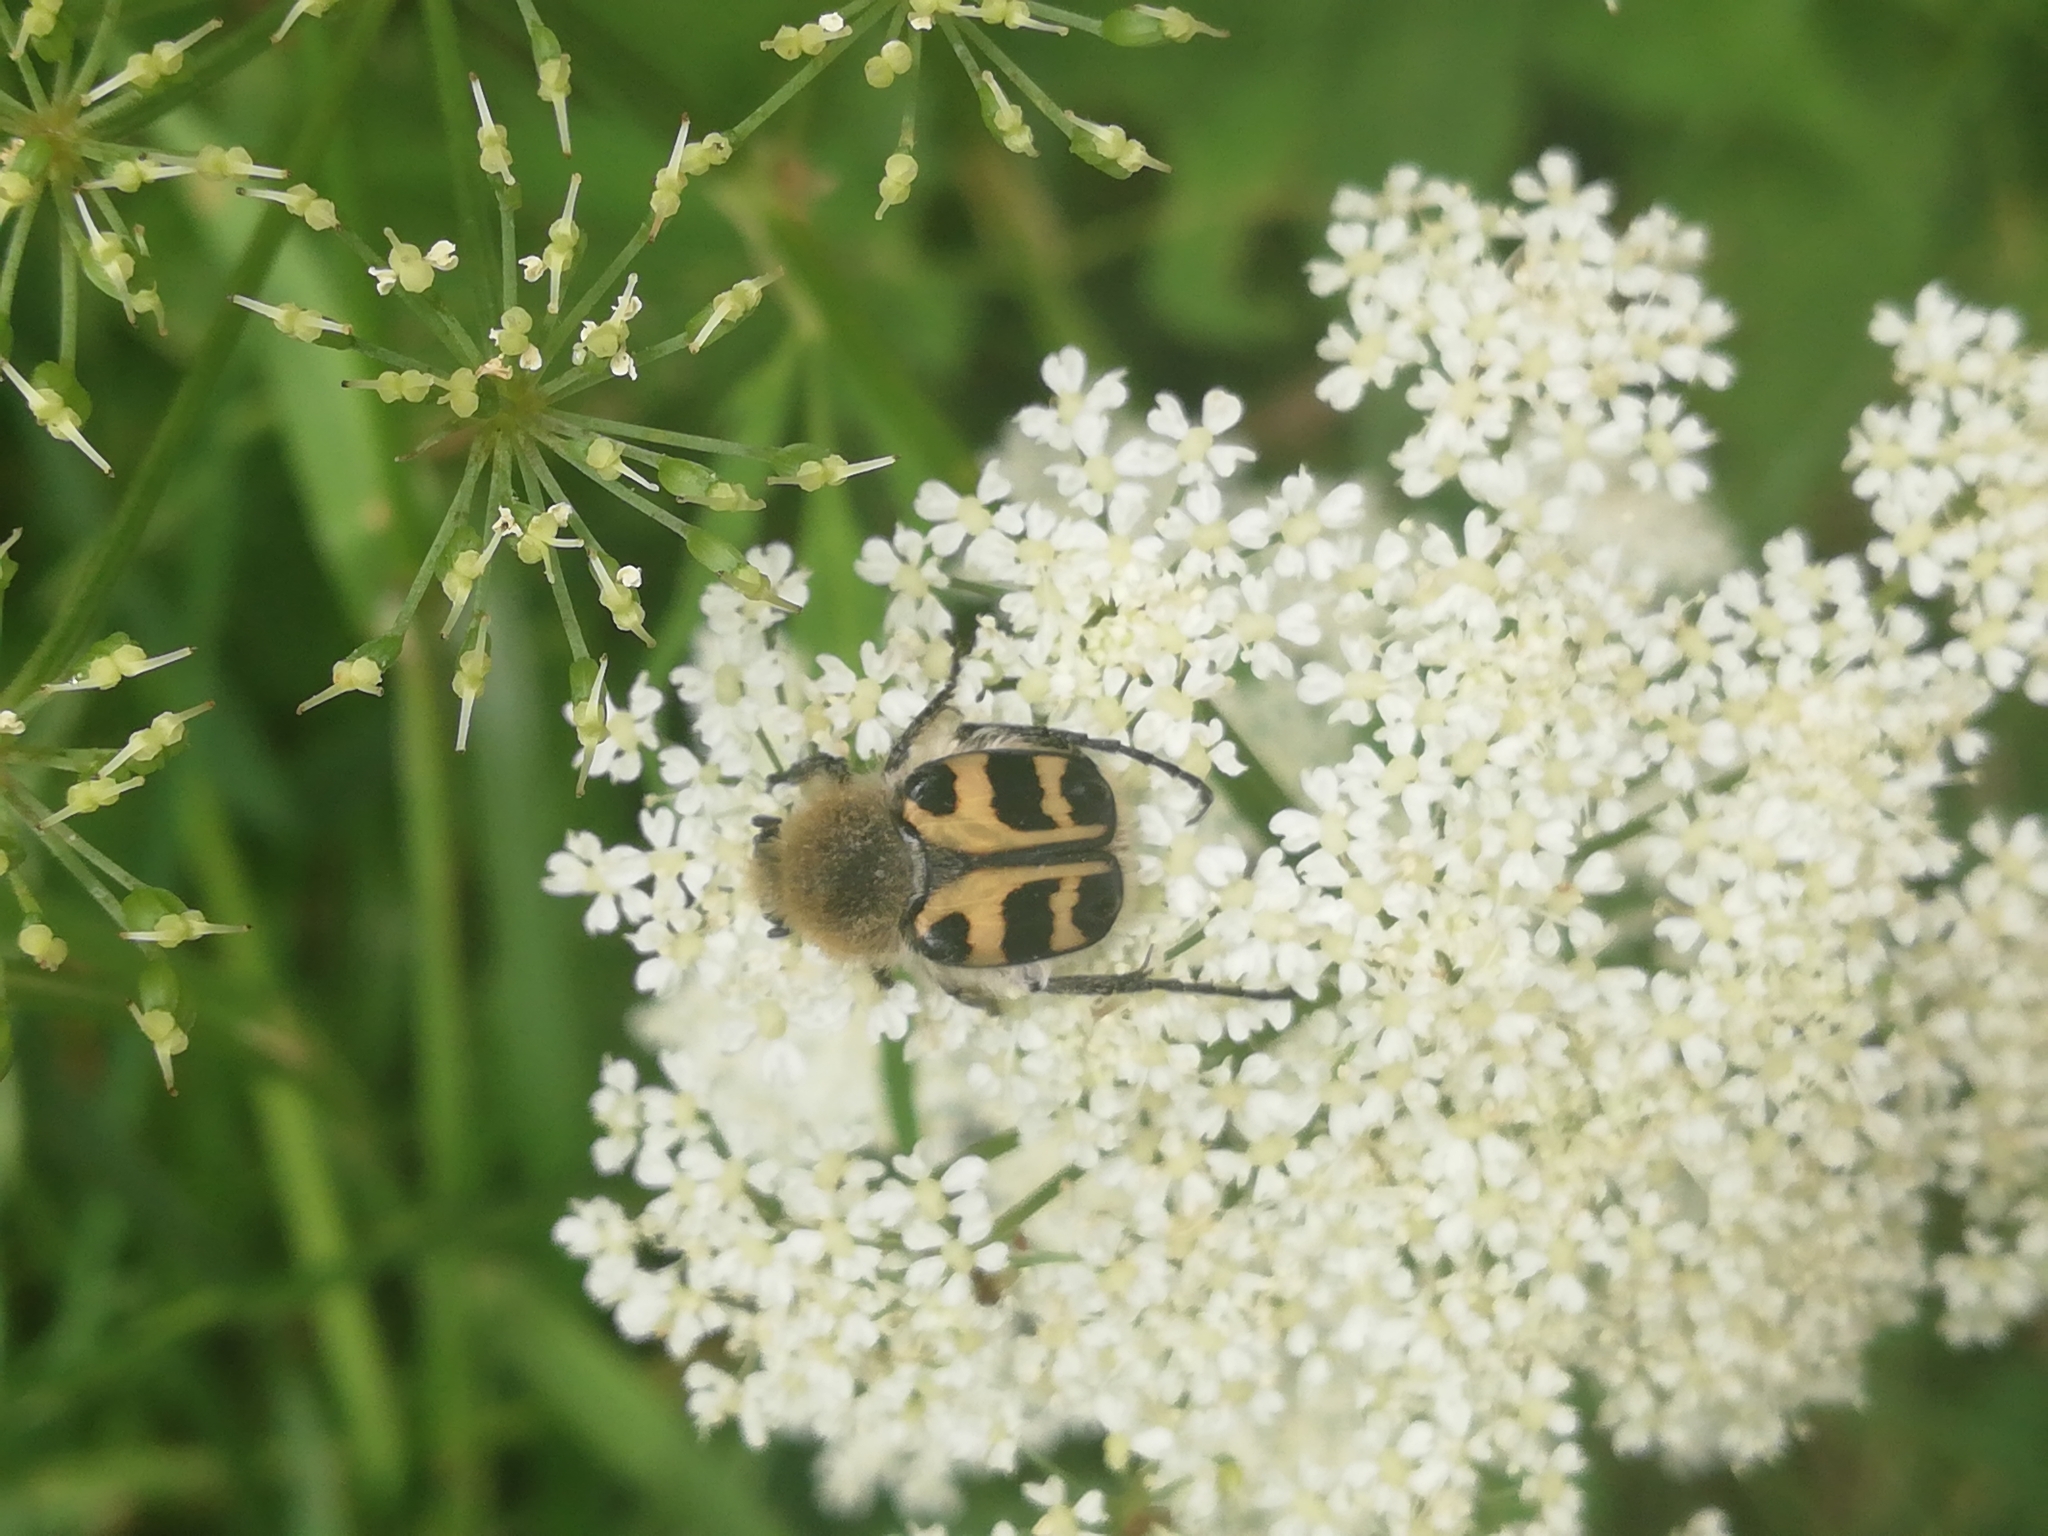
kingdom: Animalia
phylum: Arthropoda
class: Insecta
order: Coleoptera
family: Scarabaeidae
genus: Trichius
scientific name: Trichius gallicus
